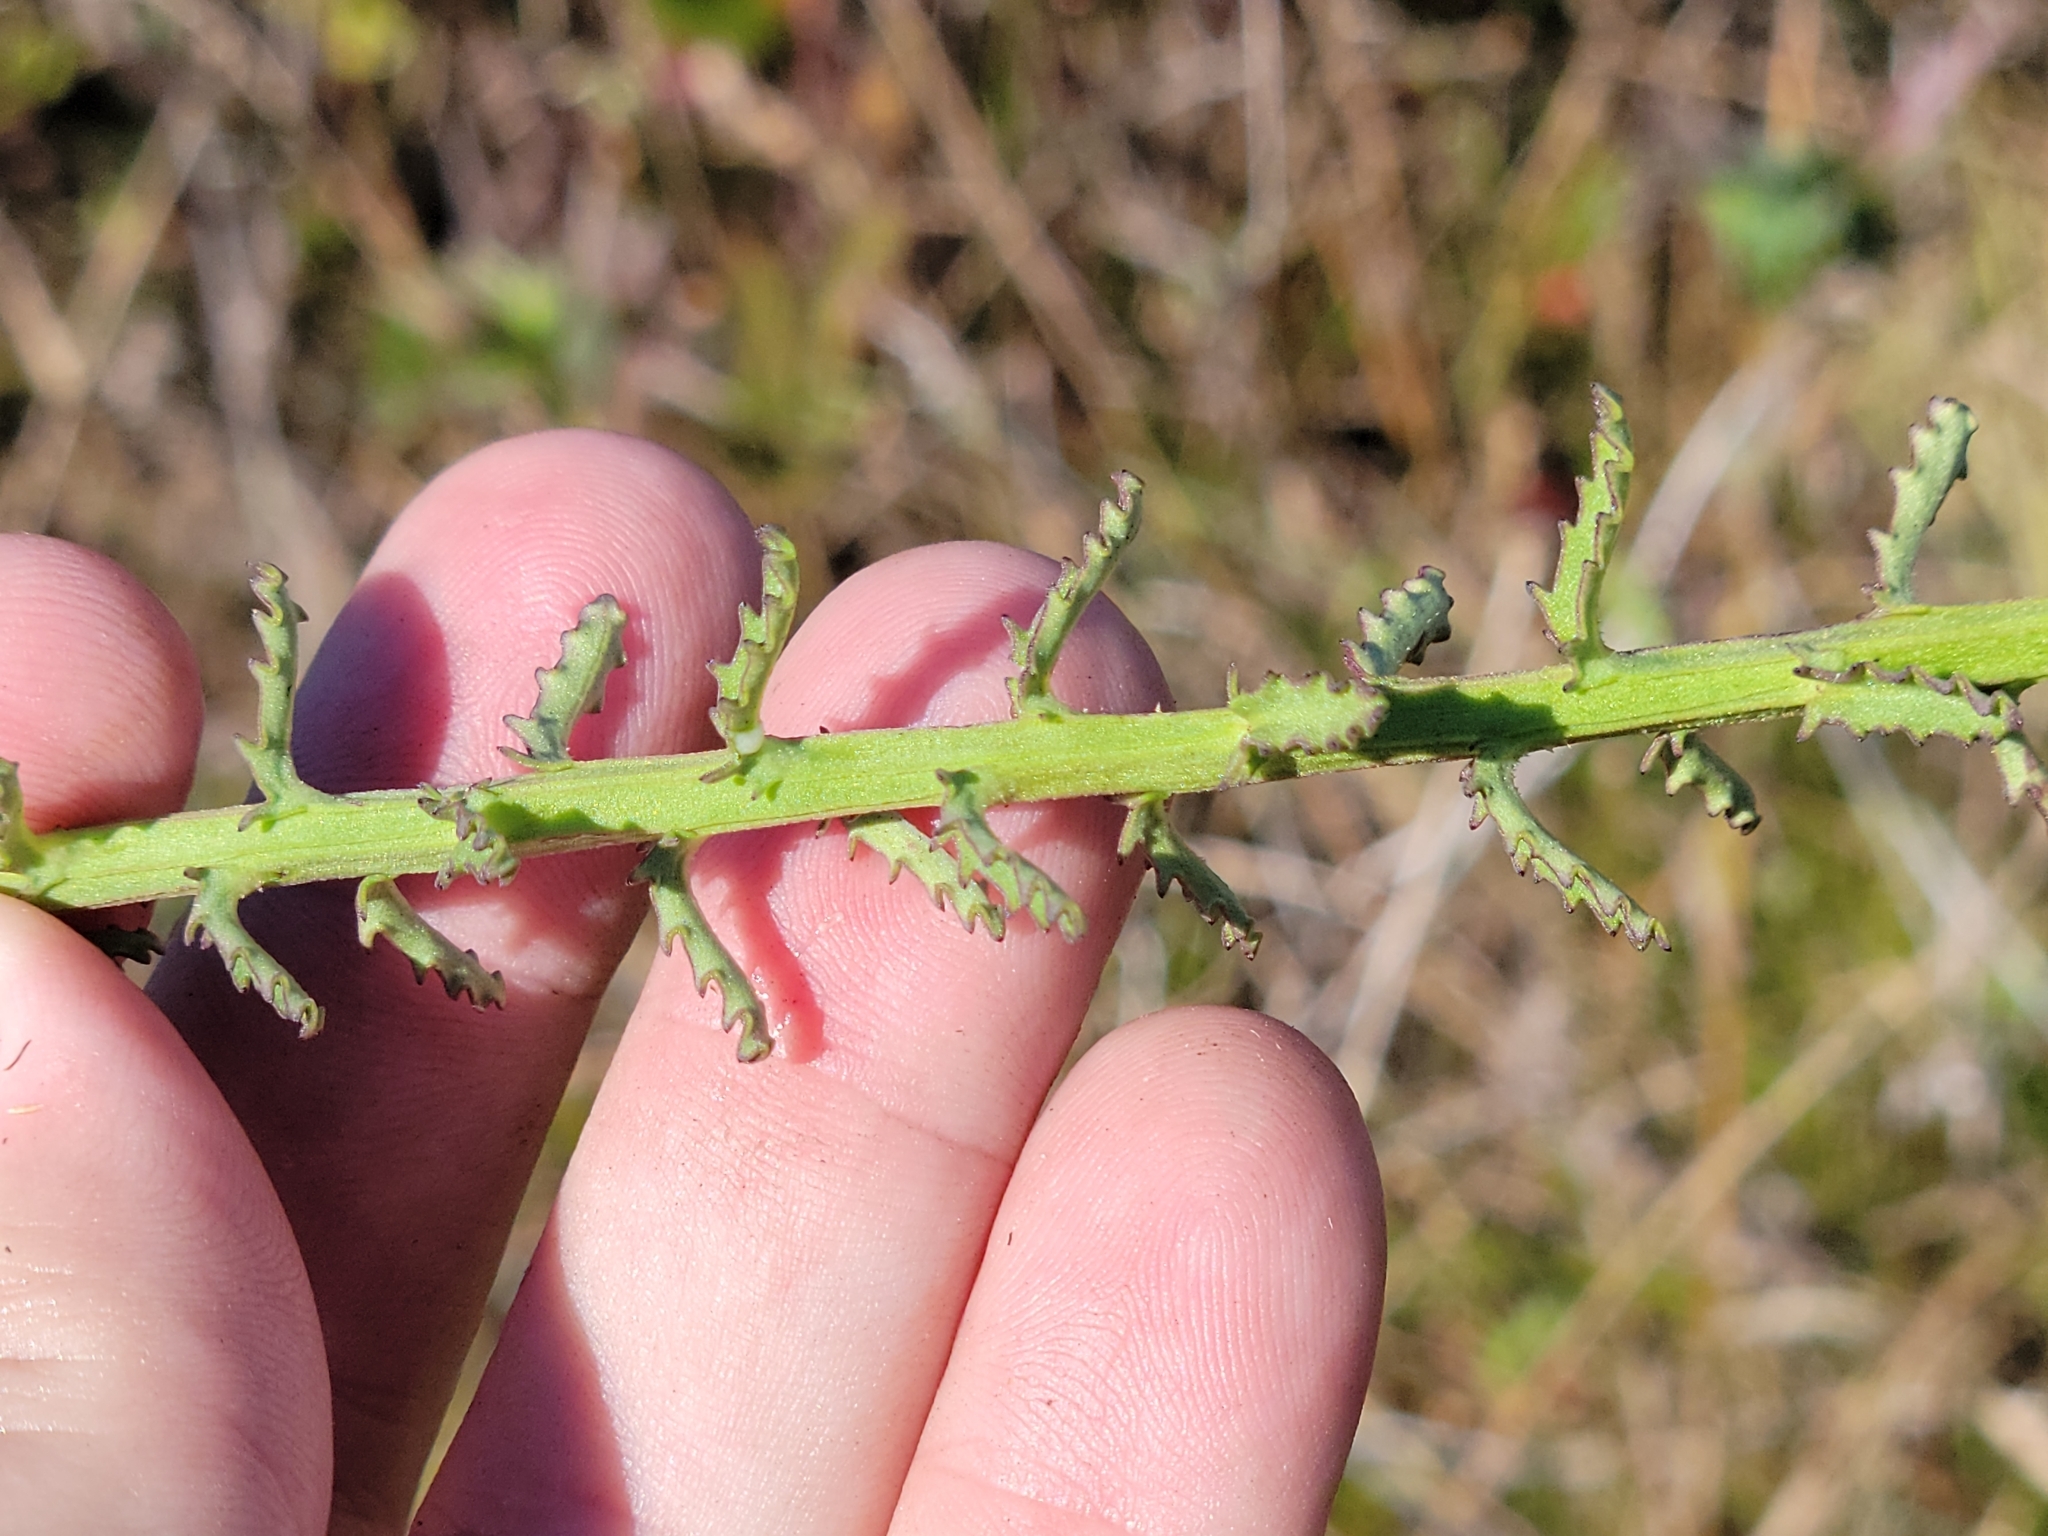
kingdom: Plantae
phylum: Tracheophyta
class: Magnoliopsida
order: Asterales
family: Campanulaceae
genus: Lobelia
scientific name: Lobelia brevifolia
